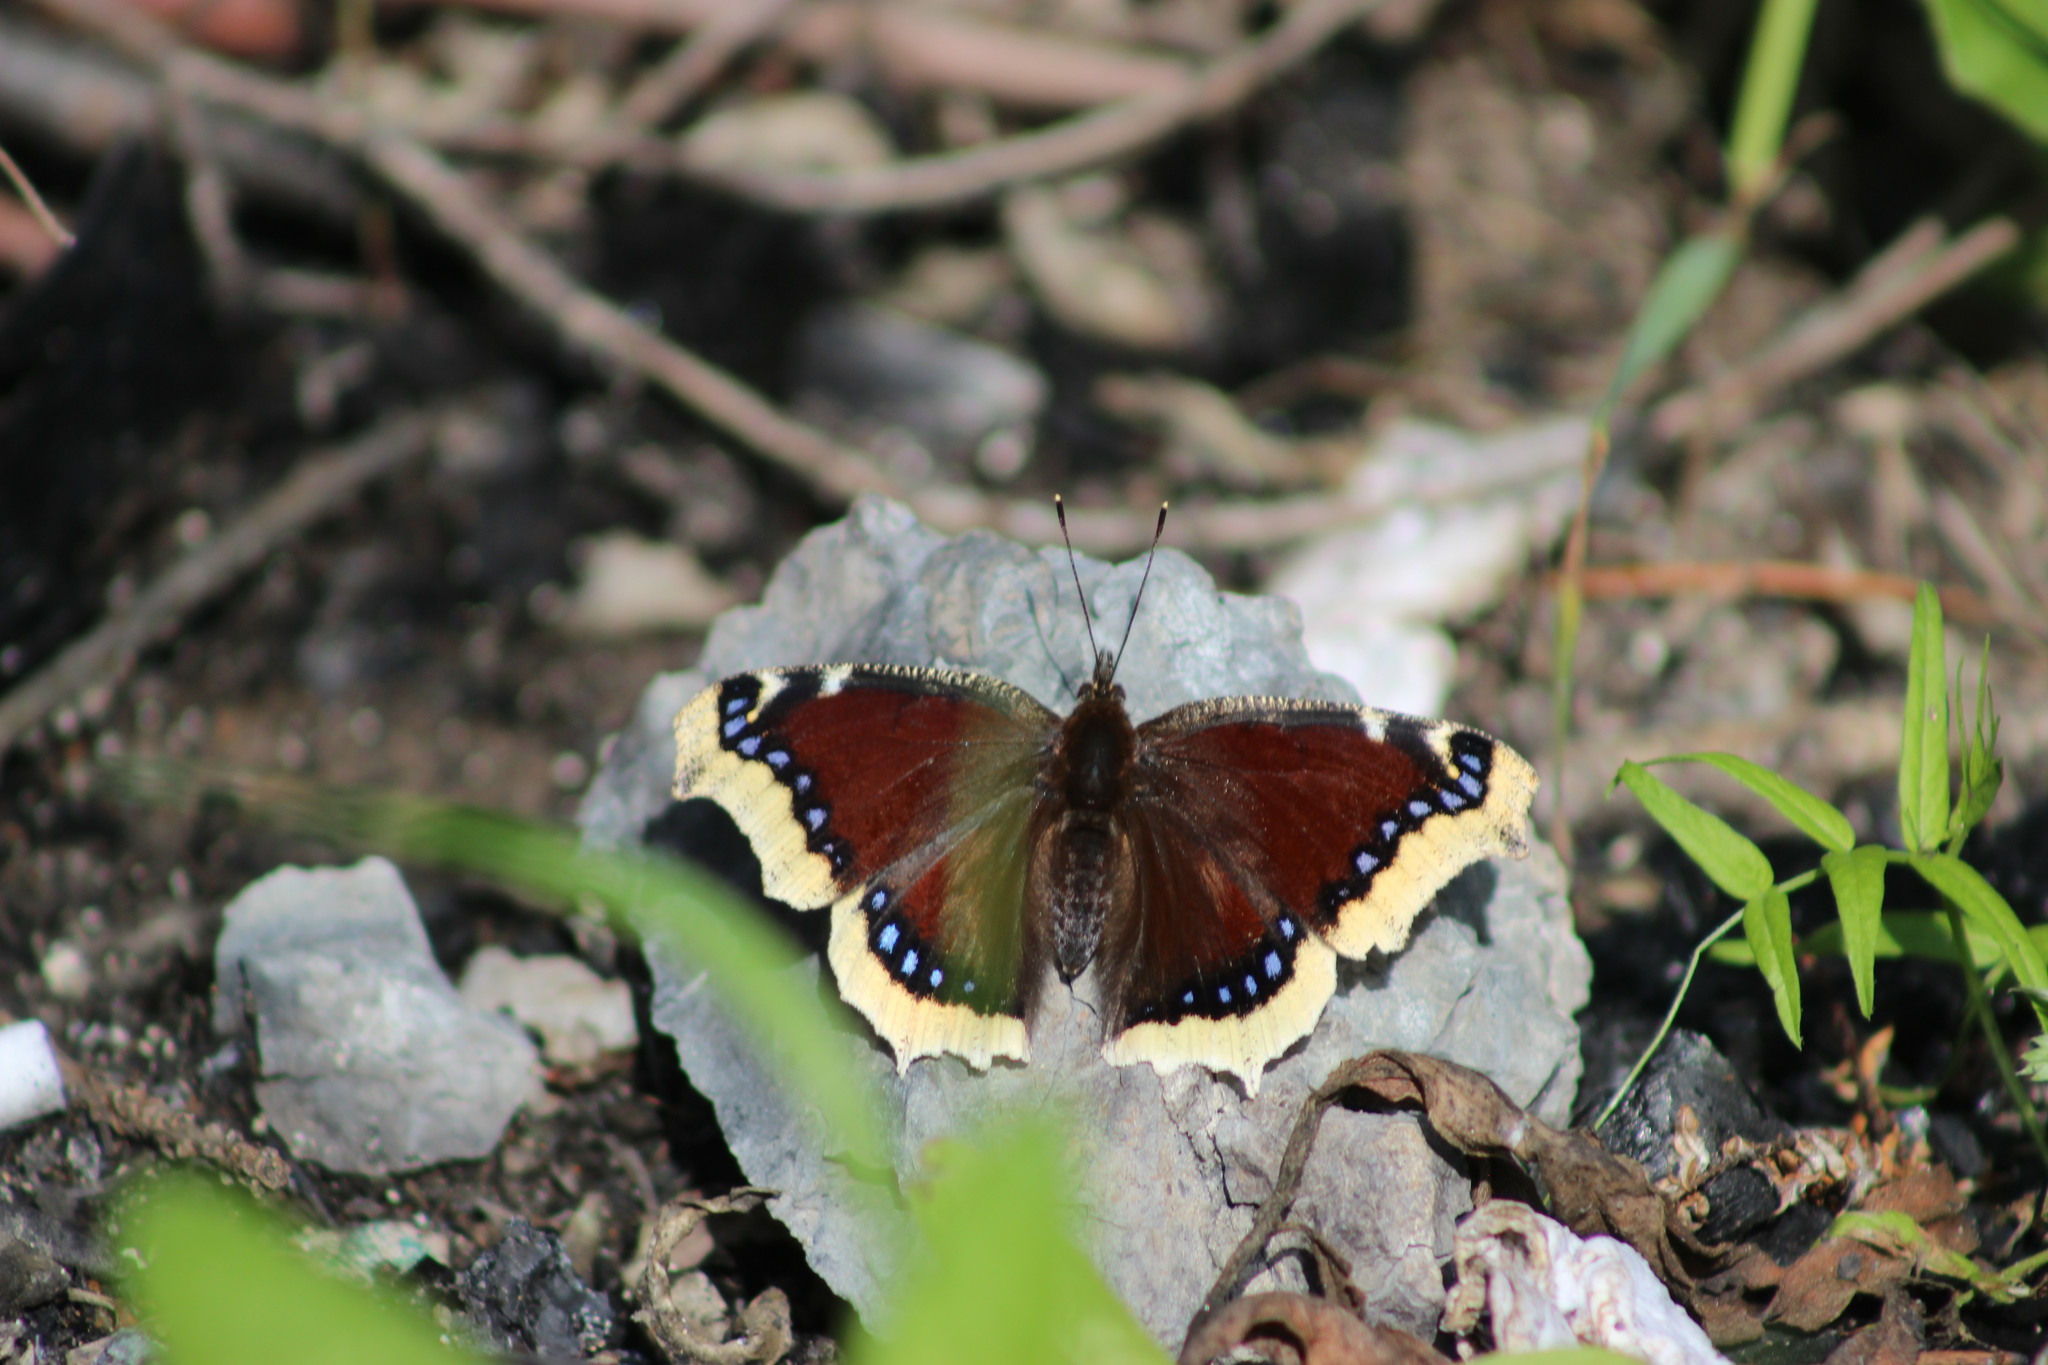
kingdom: Animalia
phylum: Arthropoda
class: Insecta
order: Lepidoptera
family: Nymphalidae
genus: Nymphalis
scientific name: Nymphalis antiopa
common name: Camberwell beauty
